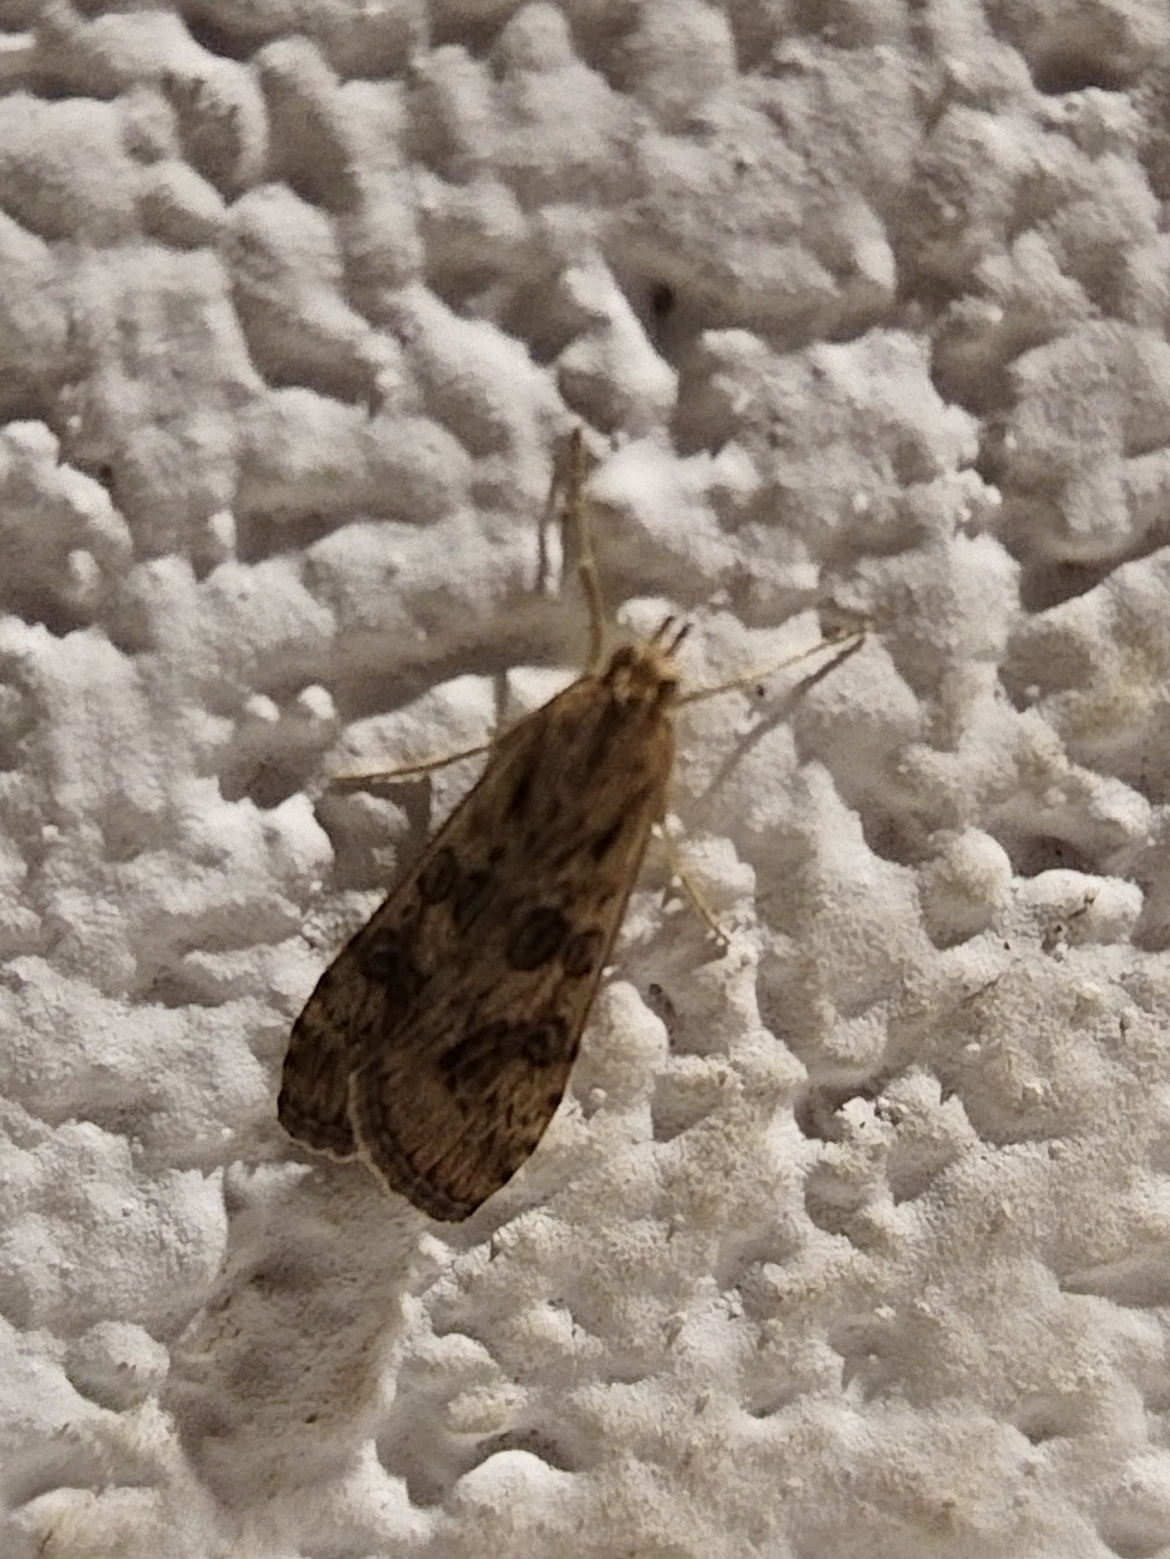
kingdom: Animalia
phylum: Arthropoda
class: Insecta
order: Lepidoptera
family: Crambidae
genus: Nomophila
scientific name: Nomophila noctuella
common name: Rush veneer
